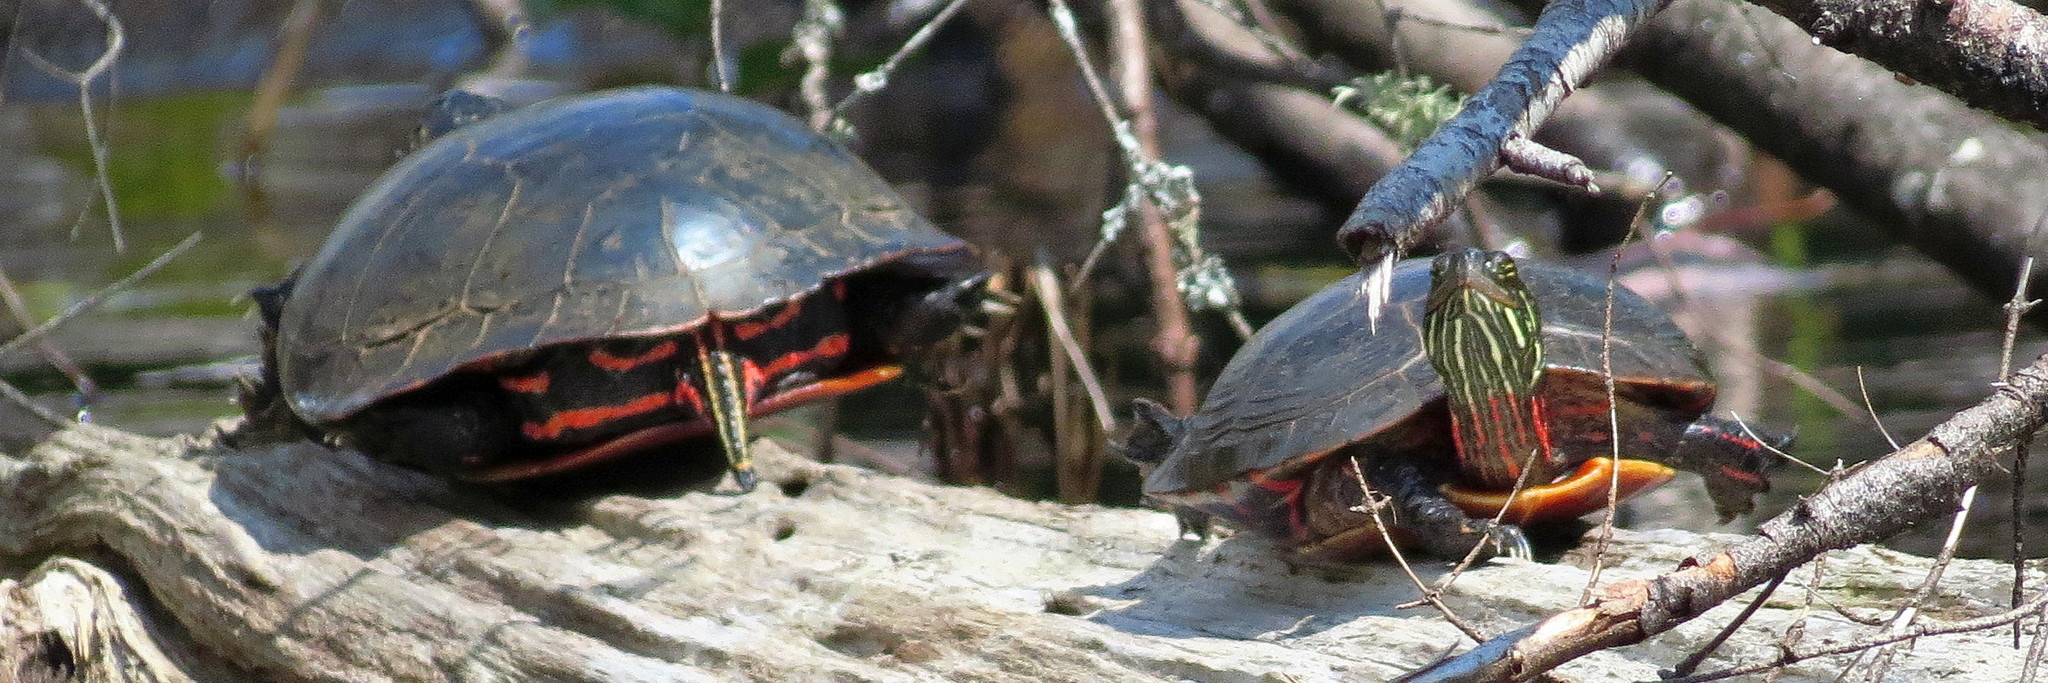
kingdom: Animalia
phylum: Chordata
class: Testudines
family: Emydidae
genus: Chrysemys
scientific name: Chrysemys picta
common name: Painted turtle
